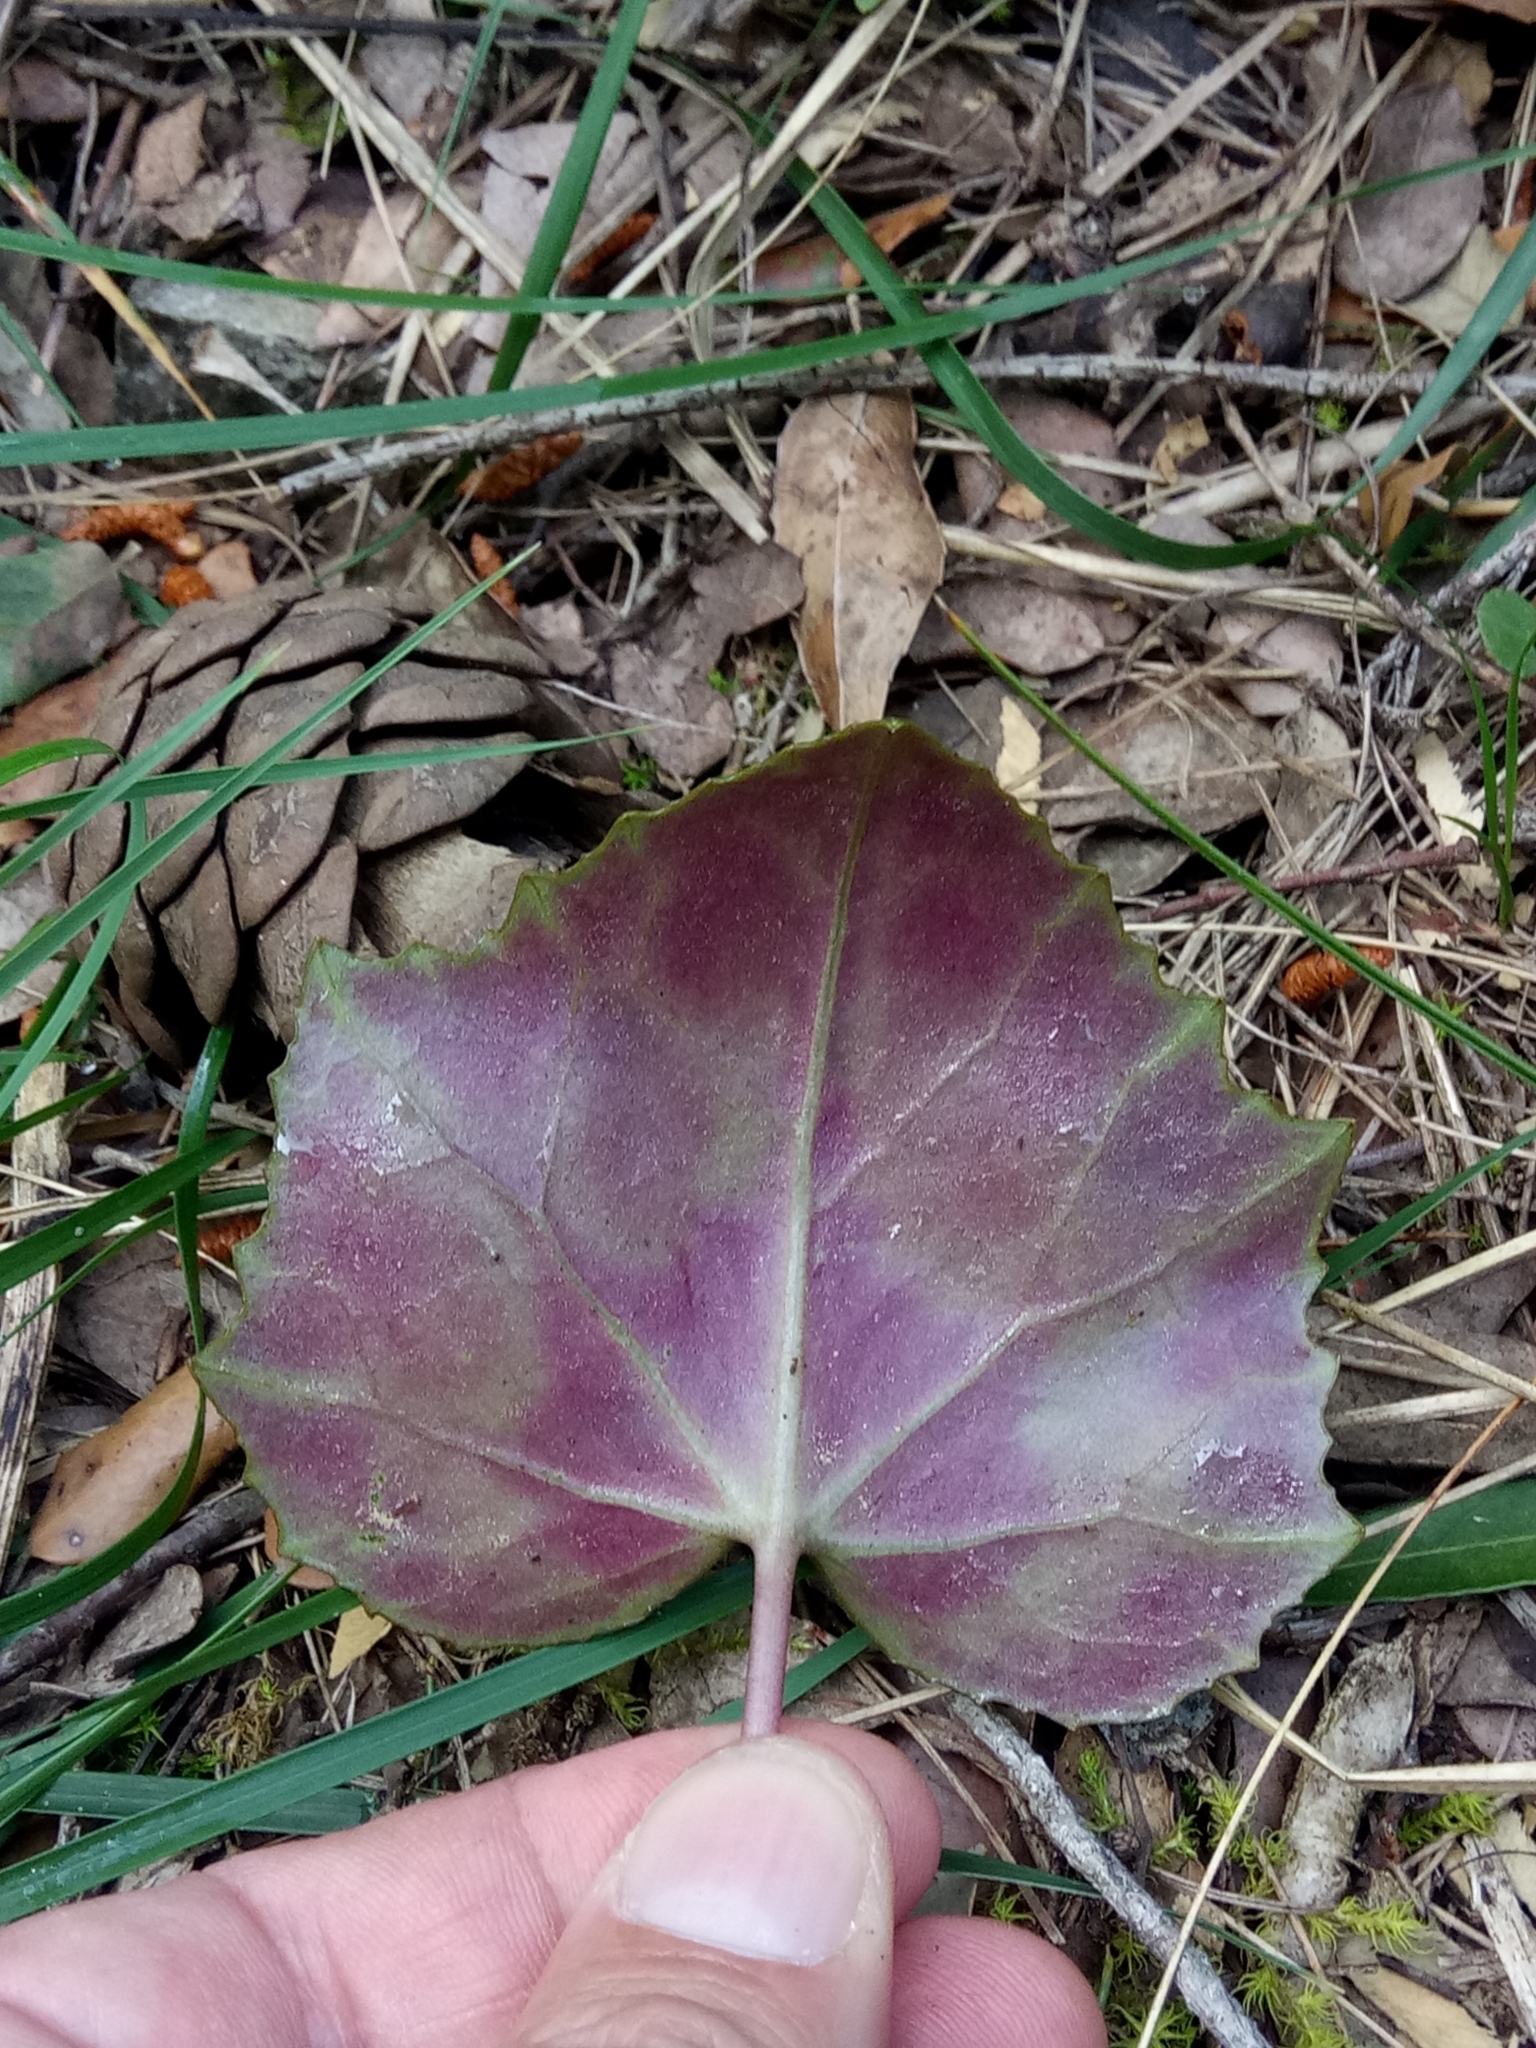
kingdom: Plantae
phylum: Tracheophyta
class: Magnoliopsida
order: Ericales
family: Primulaceae
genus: Cyclamen
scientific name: Cyclamen africanum
